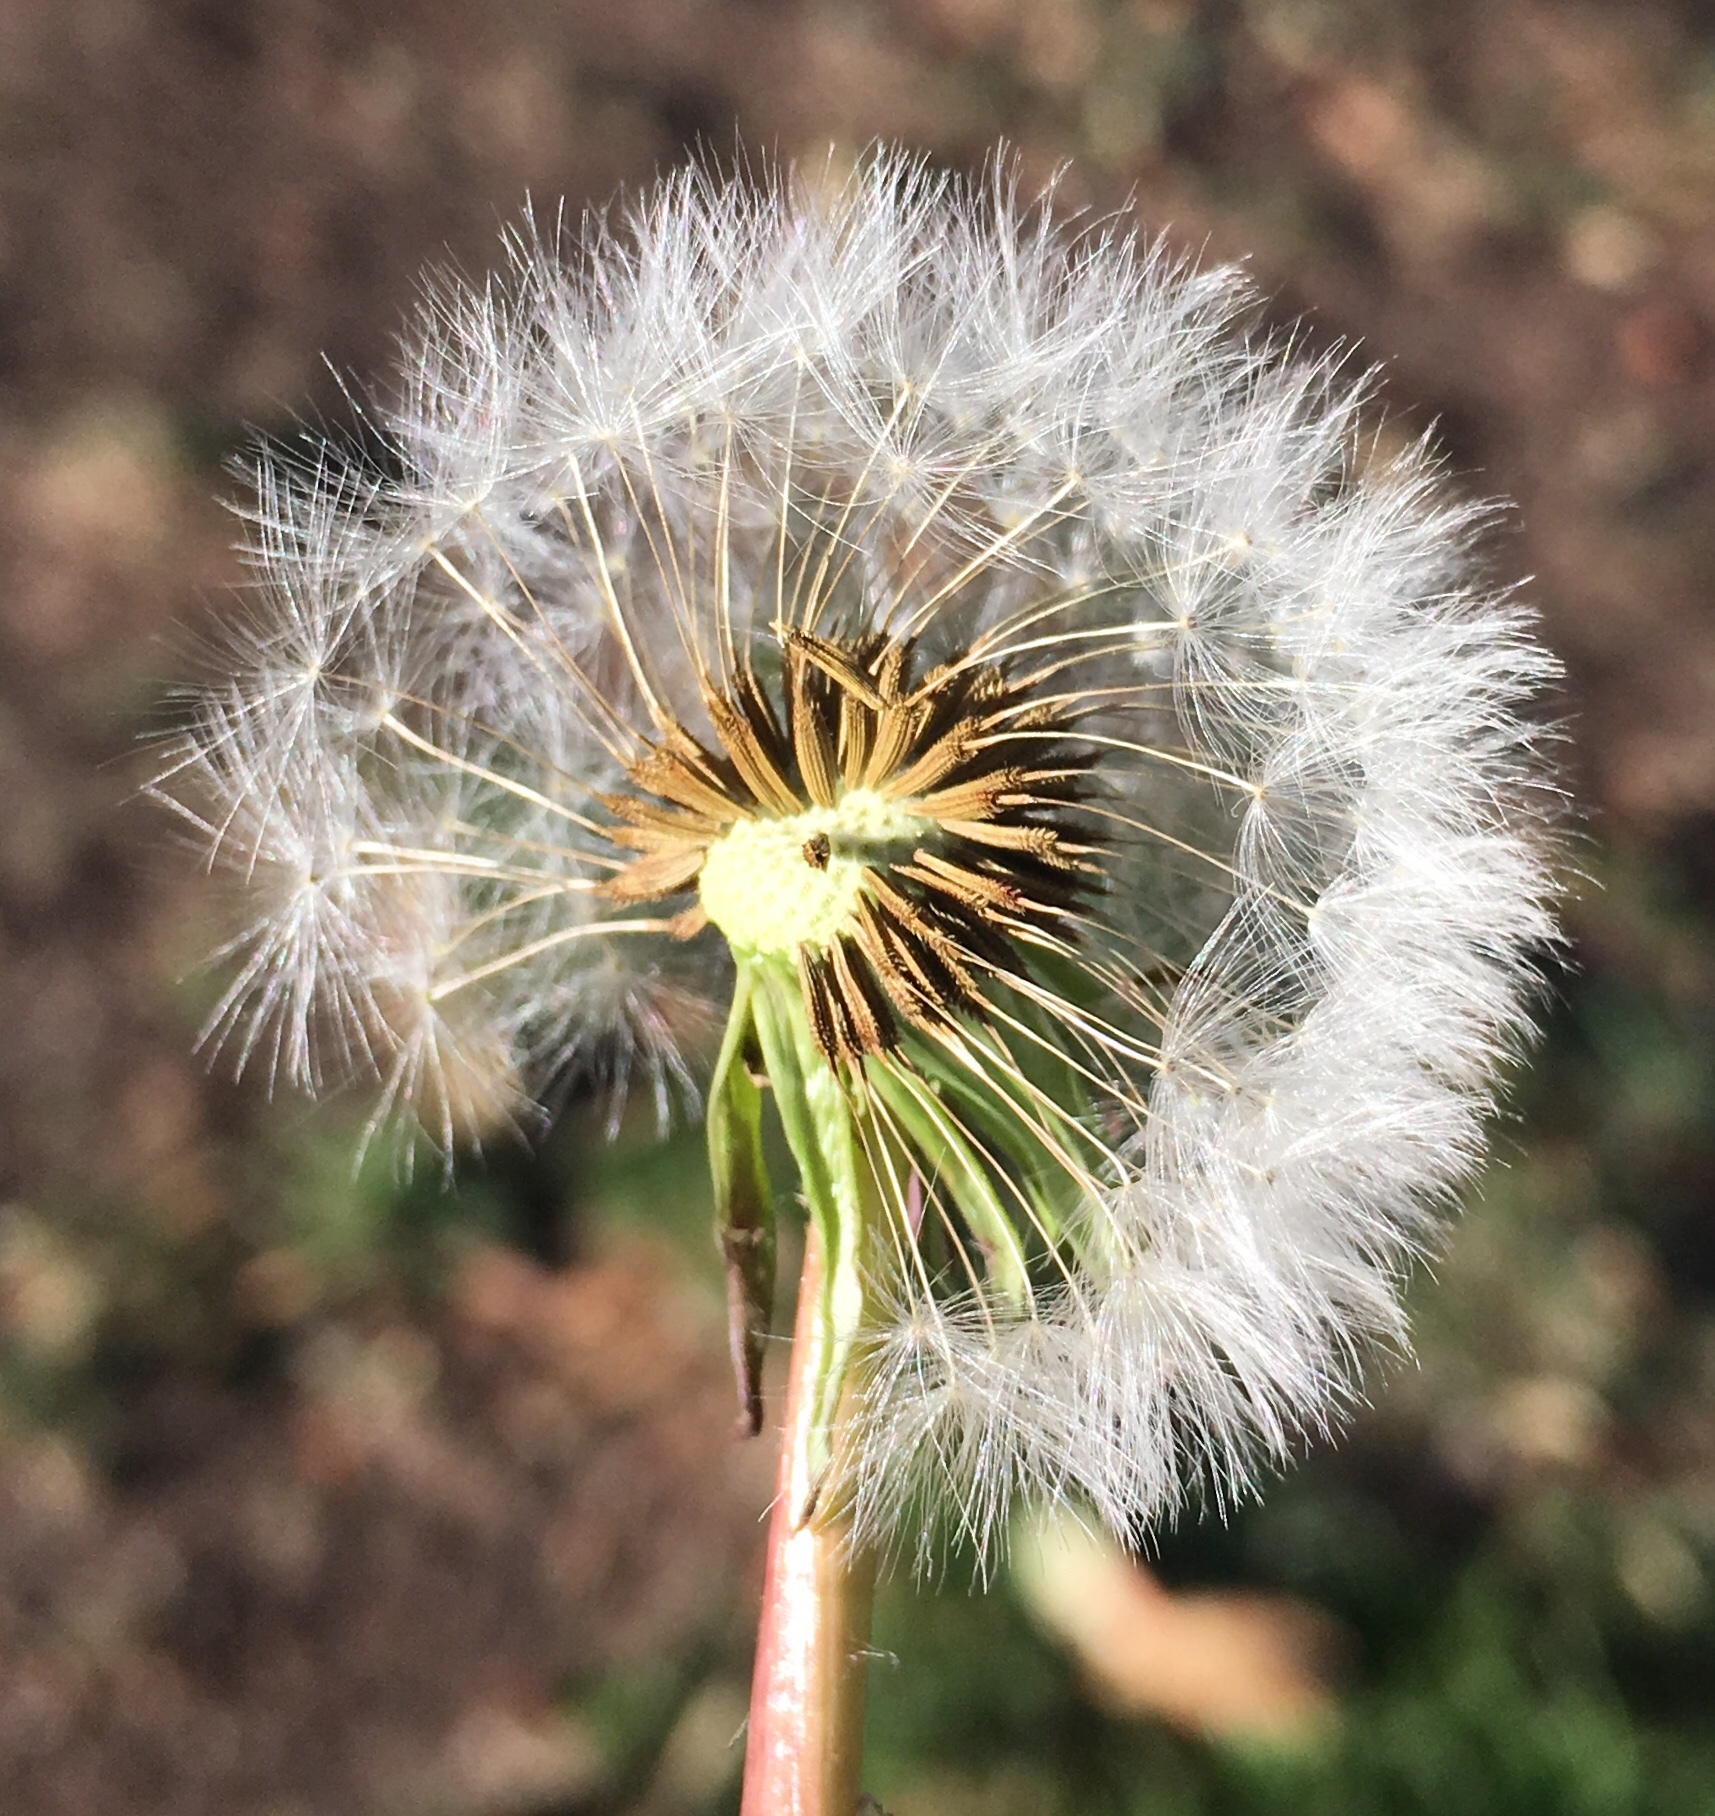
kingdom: Plantae
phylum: Tracheophyta
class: Magnoliopsida
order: Asterales
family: Asteraceae
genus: Taraxacum
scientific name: Taraxacum officinale
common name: Common dandelion
